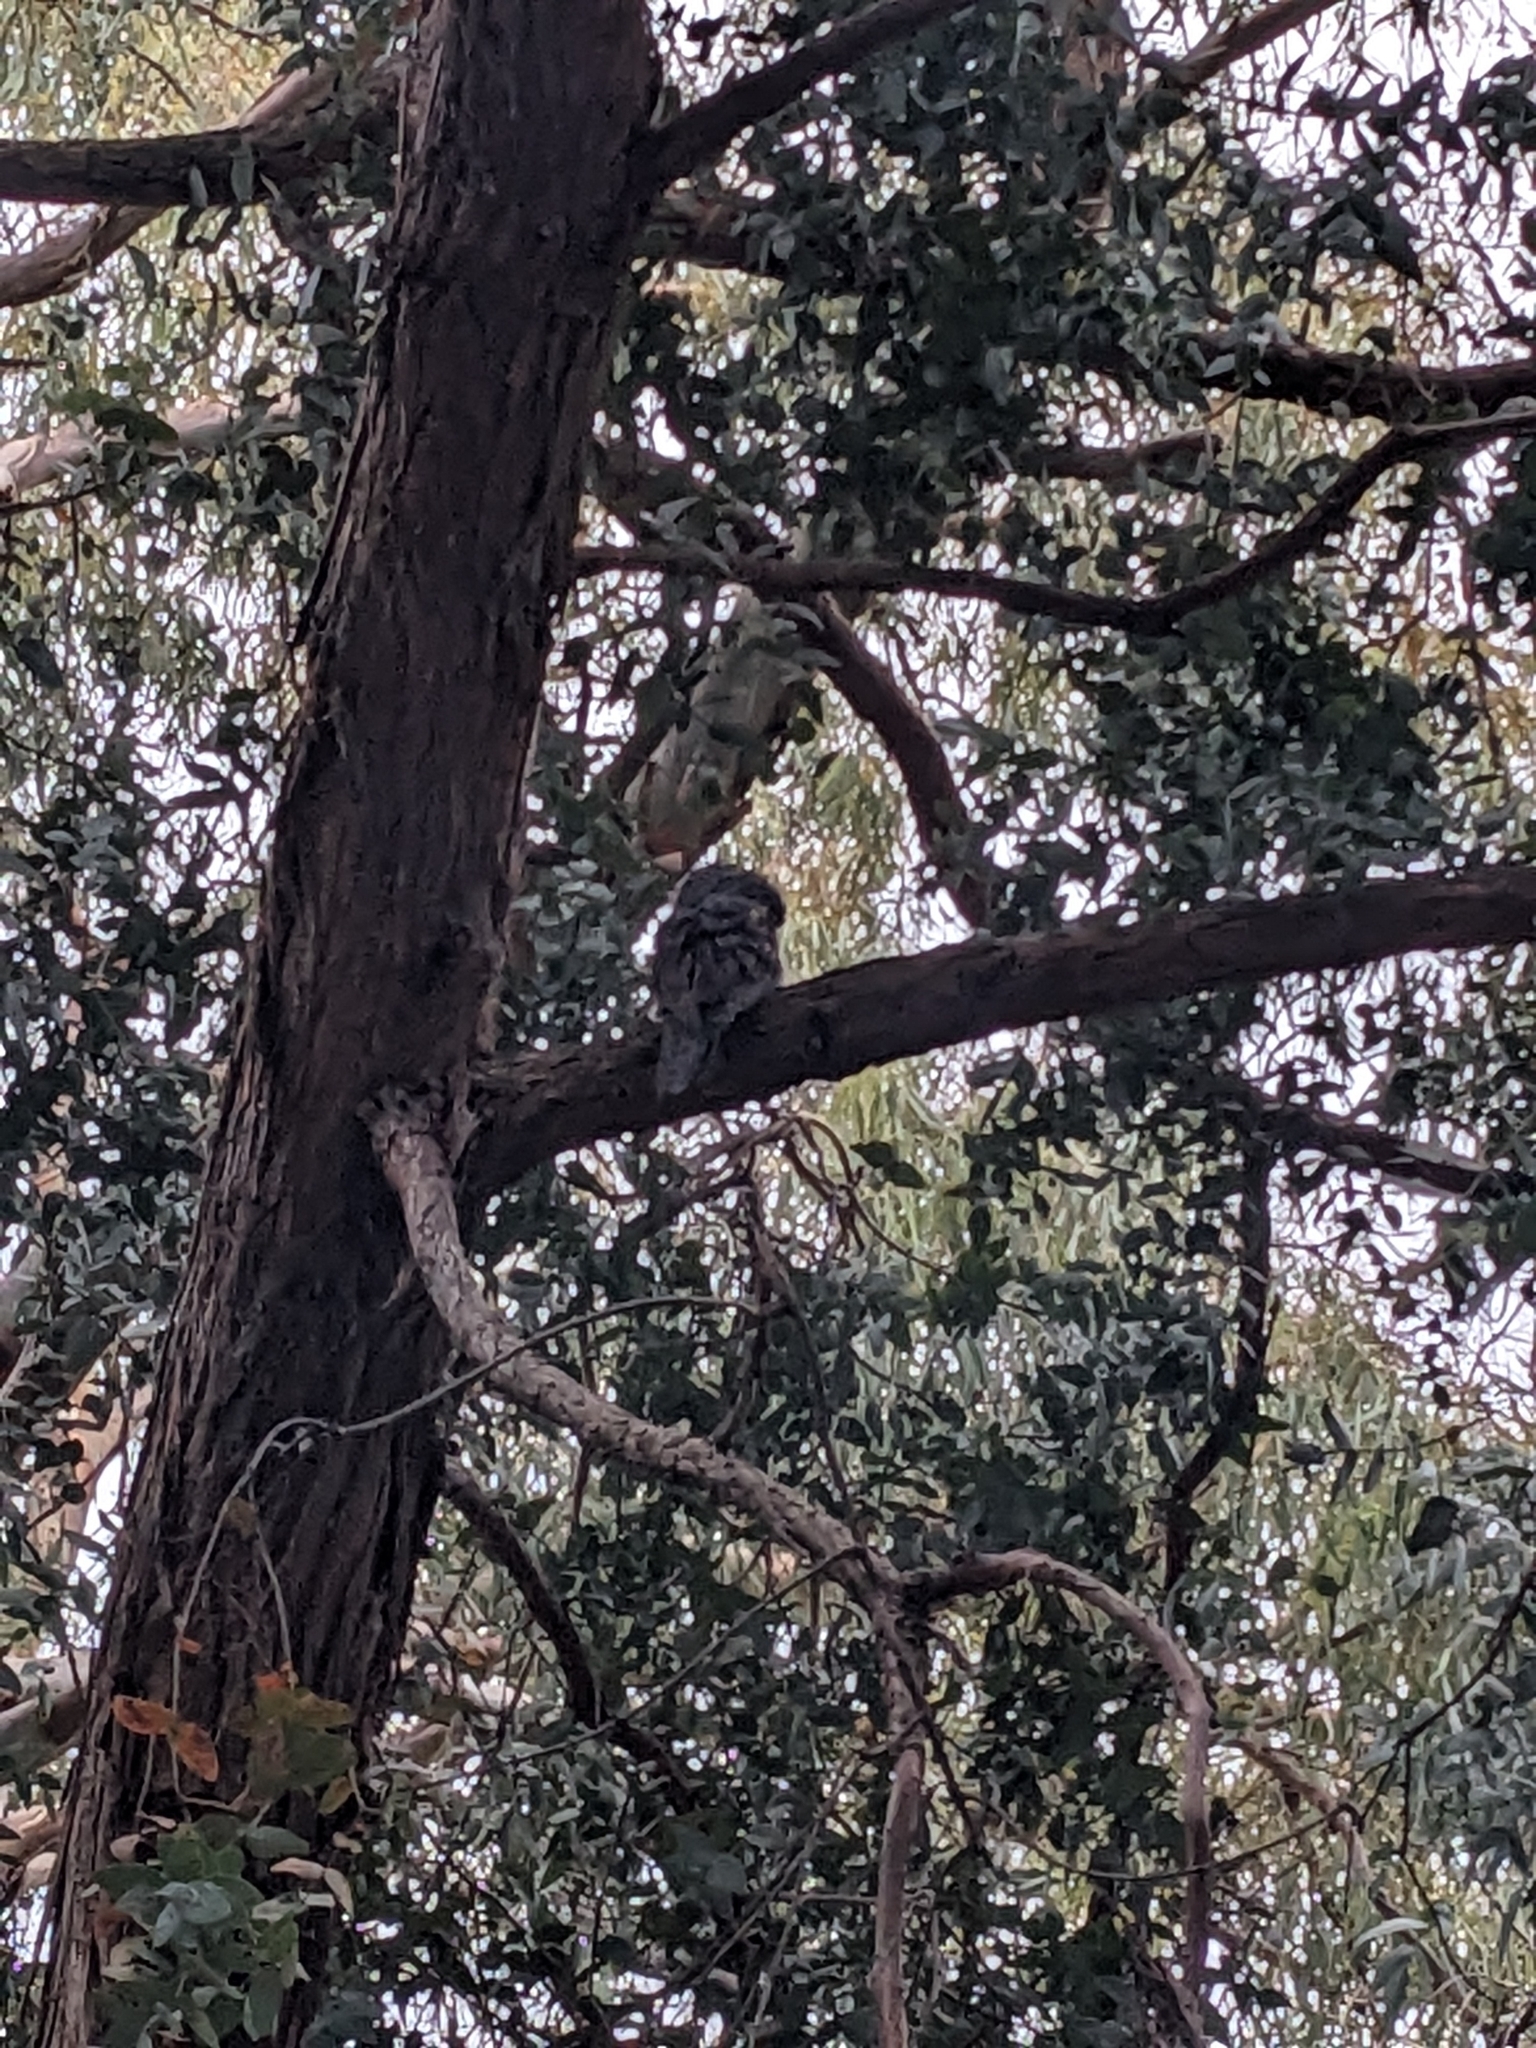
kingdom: Animalia
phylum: Chordata
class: Aves
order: Caprimulgiformes
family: Podargidae
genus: Podargus
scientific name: Podargus strigoides
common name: Tawny frogmouth
